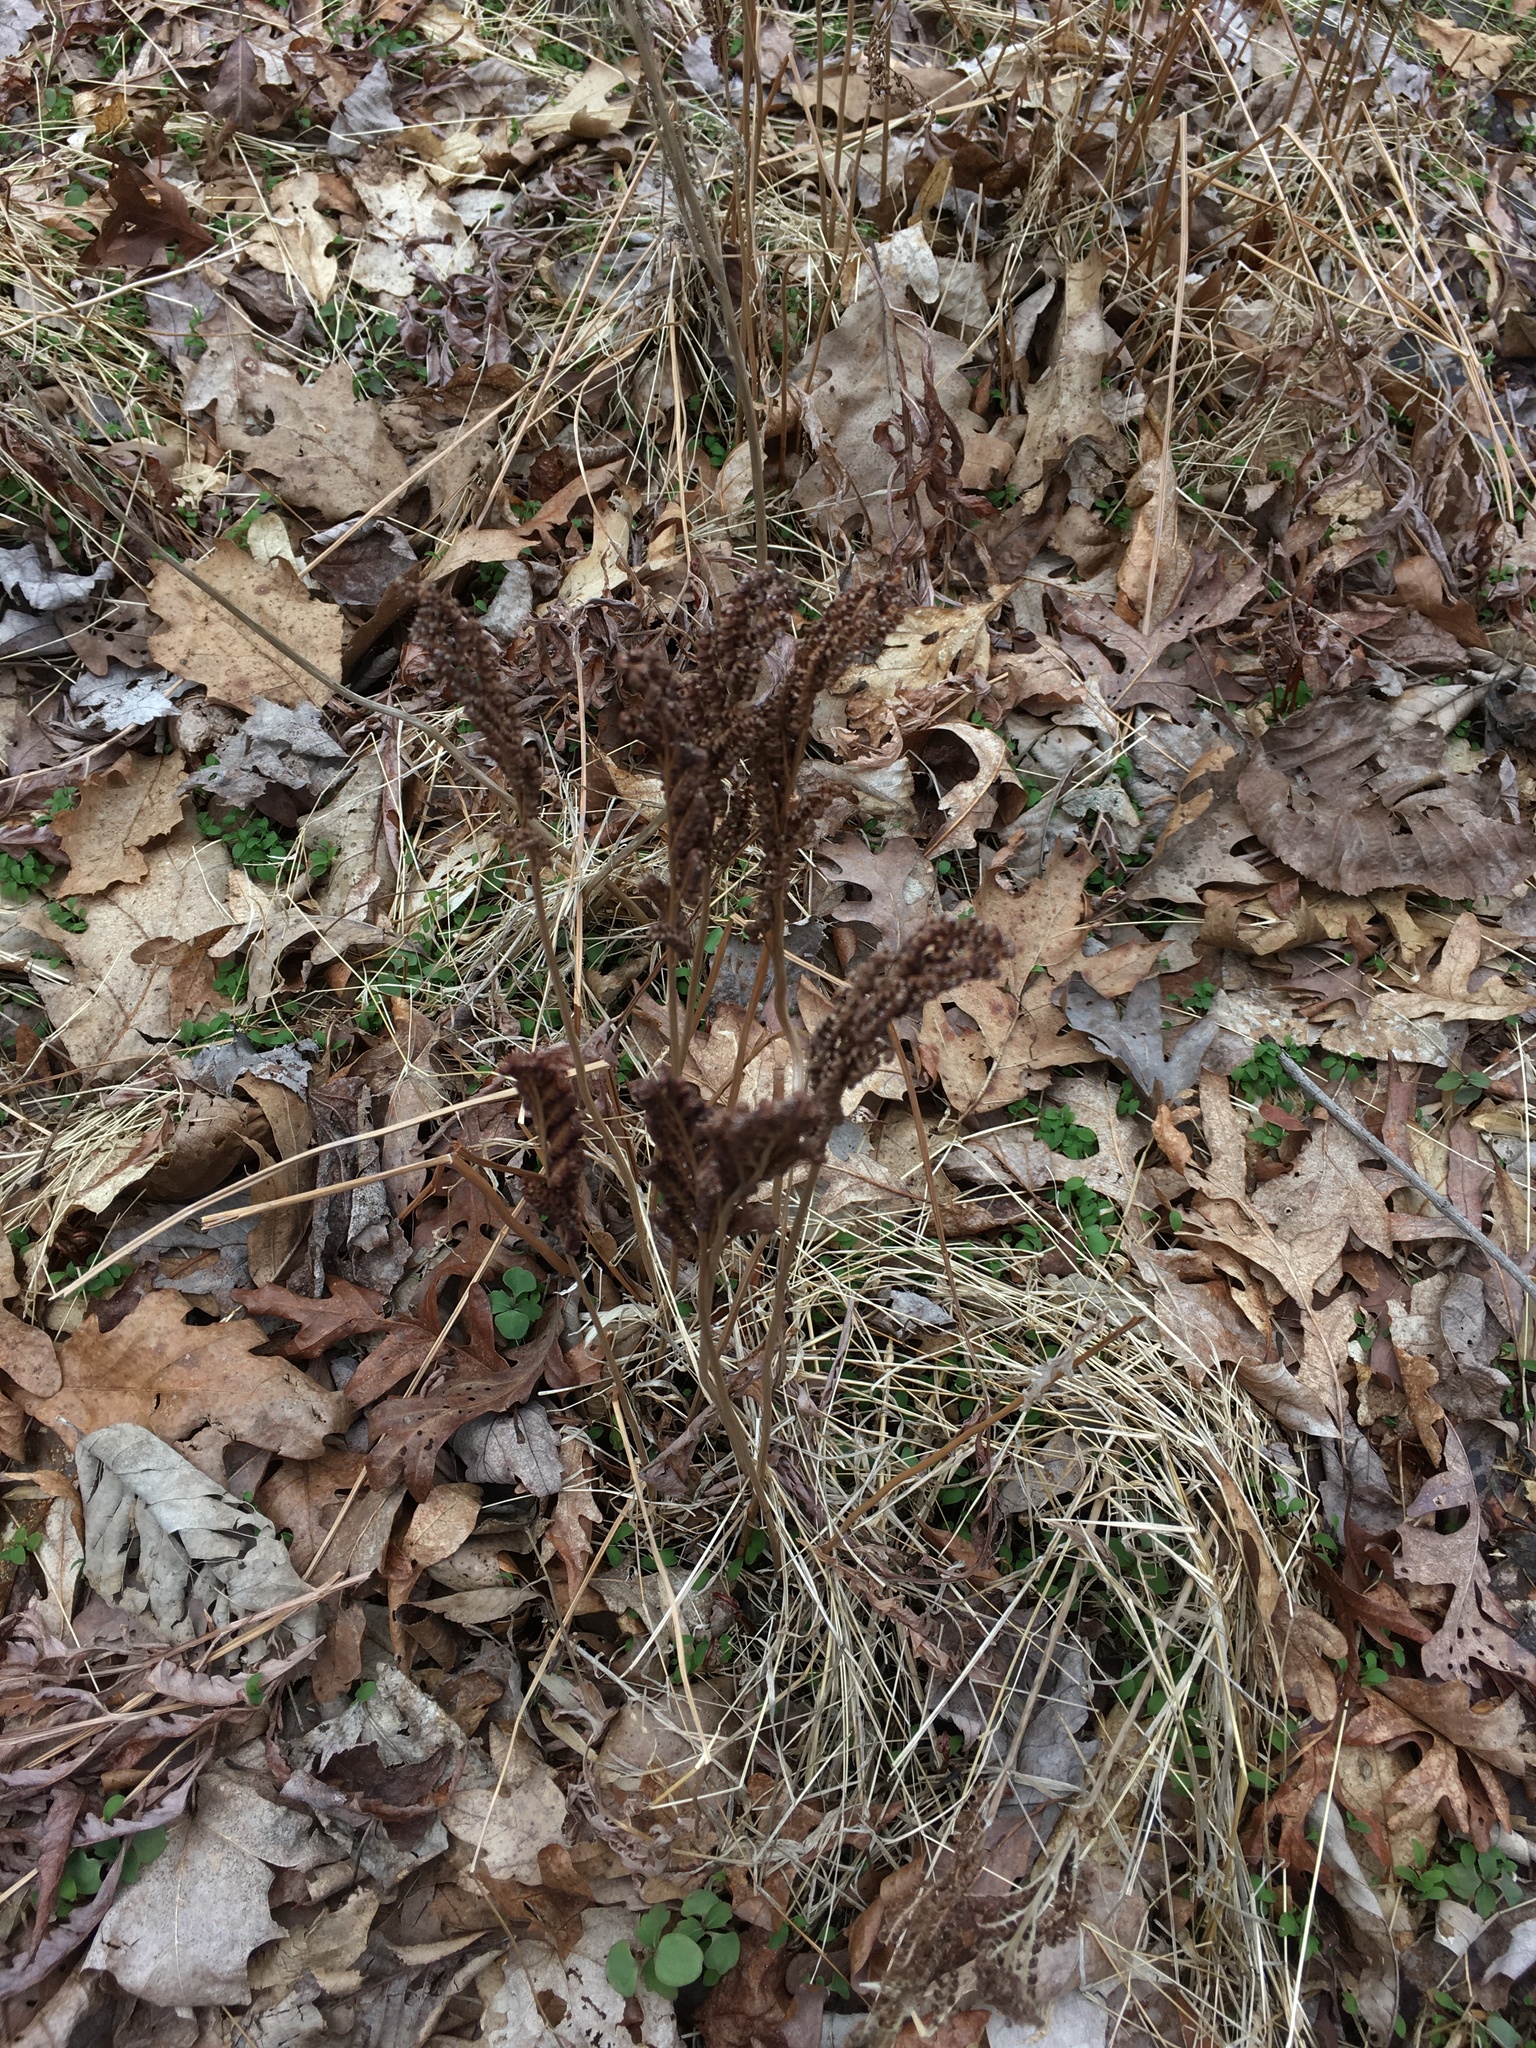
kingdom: Plantae
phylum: Tracheophyta
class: Polypodiopsida
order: Polypodiales
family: Onocleaceae
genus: Onoclea
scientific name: Onoclea sensibilis
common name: Sensitive fern
